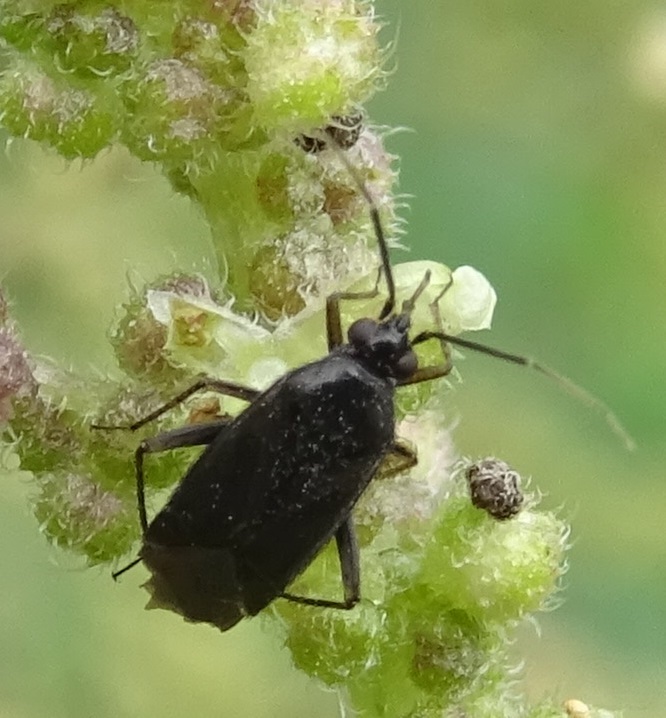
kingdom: Animalia
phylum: Arthropoda
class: Insecta
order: Hemiptera
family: Miridae
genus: Plagiognathus
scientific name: Plagiognathus arbustorum
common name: Plant bug
